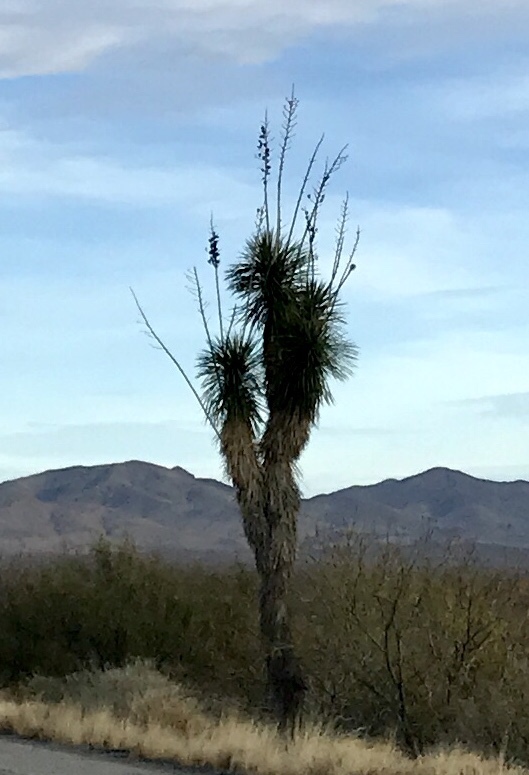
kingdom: Plantae
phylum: Tracheophyta
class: Liliopsida
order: Asparagales
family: Asparagaceae
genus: Yucca
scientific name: Yucca elata
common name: Palmella
